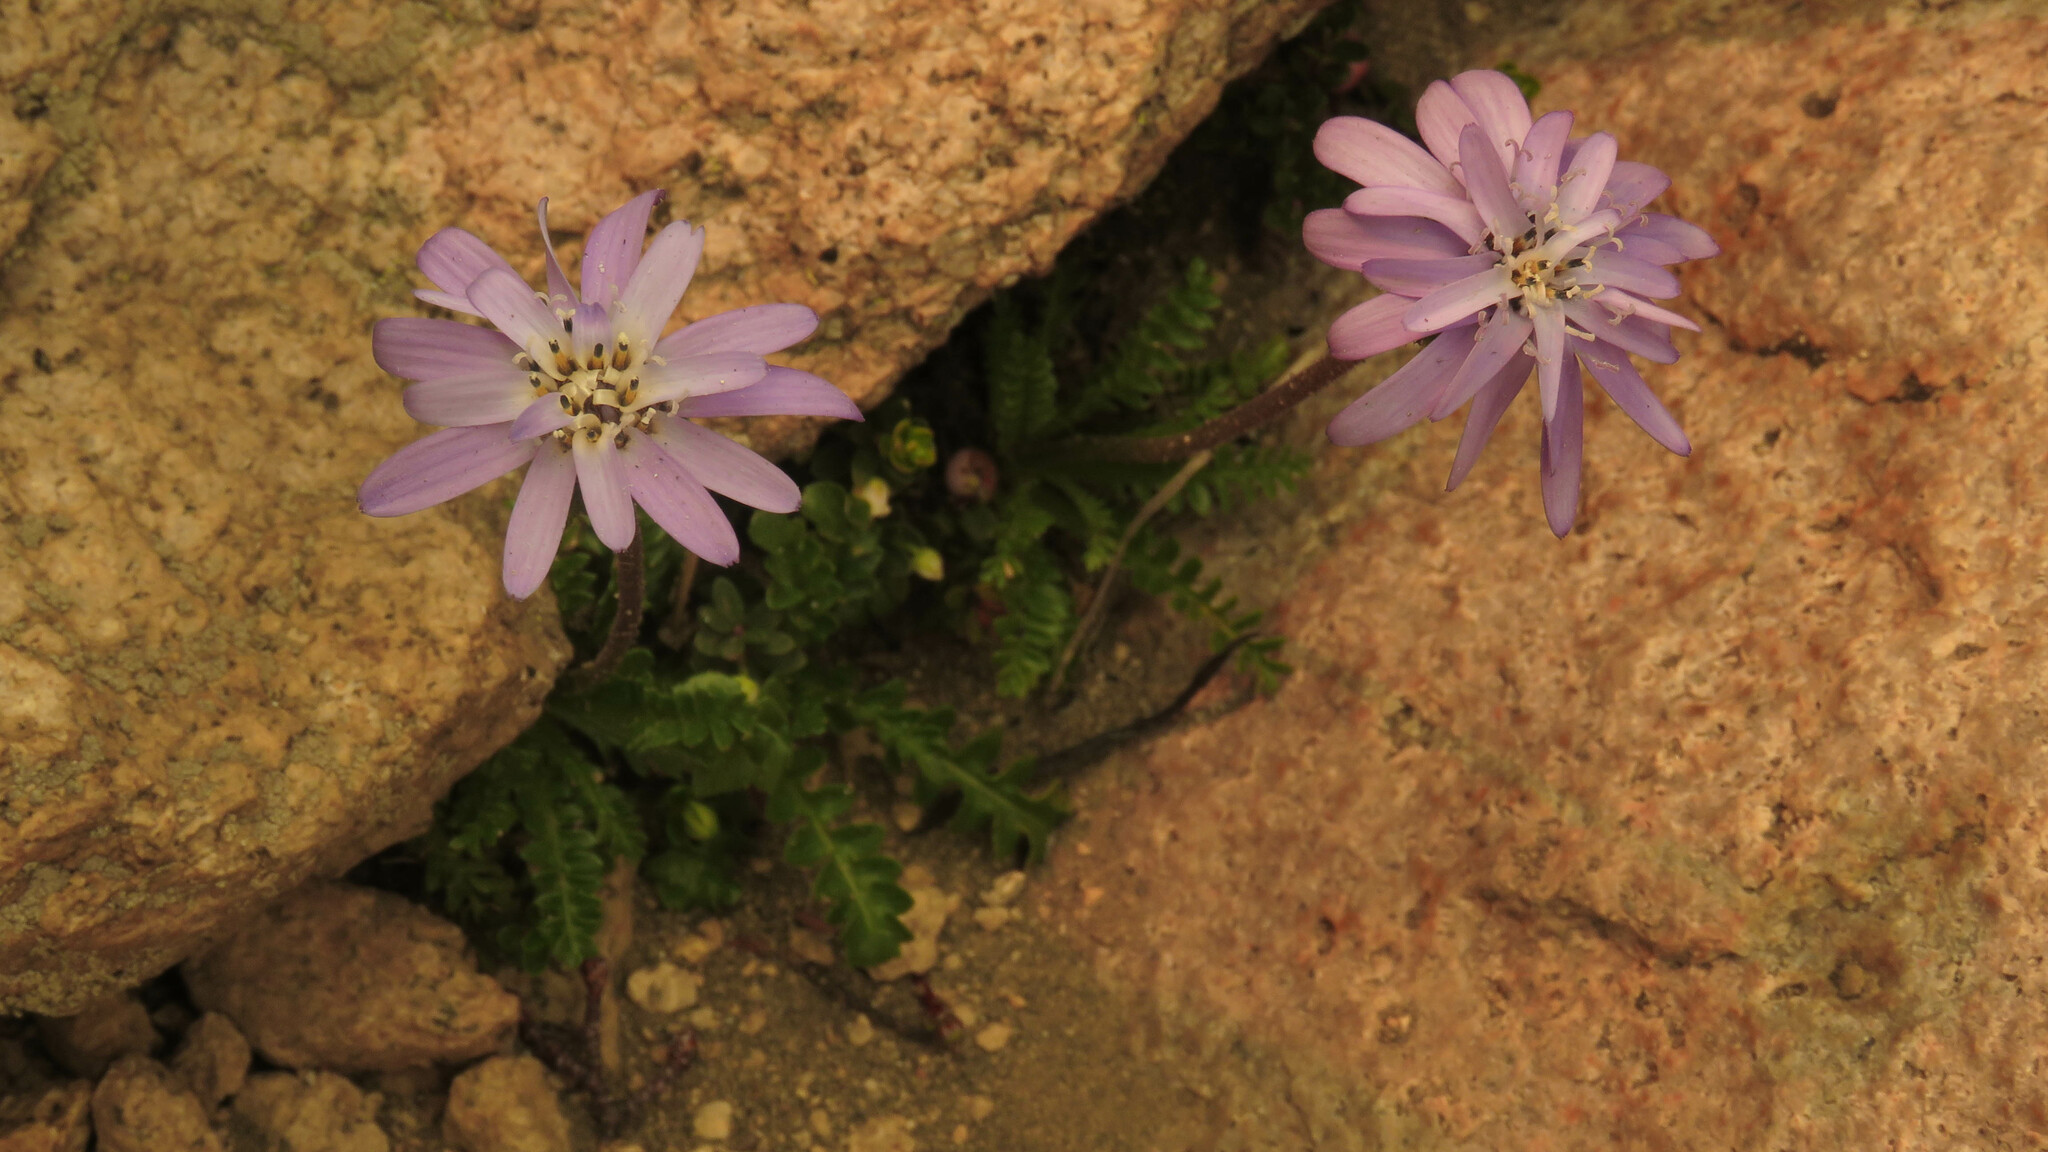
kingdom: Plantae
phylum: Tracheophyta
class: Magnoliopsida
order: Asterales
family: Asteraceae
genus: Perezia
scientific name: Perezia pedicularidifolia
